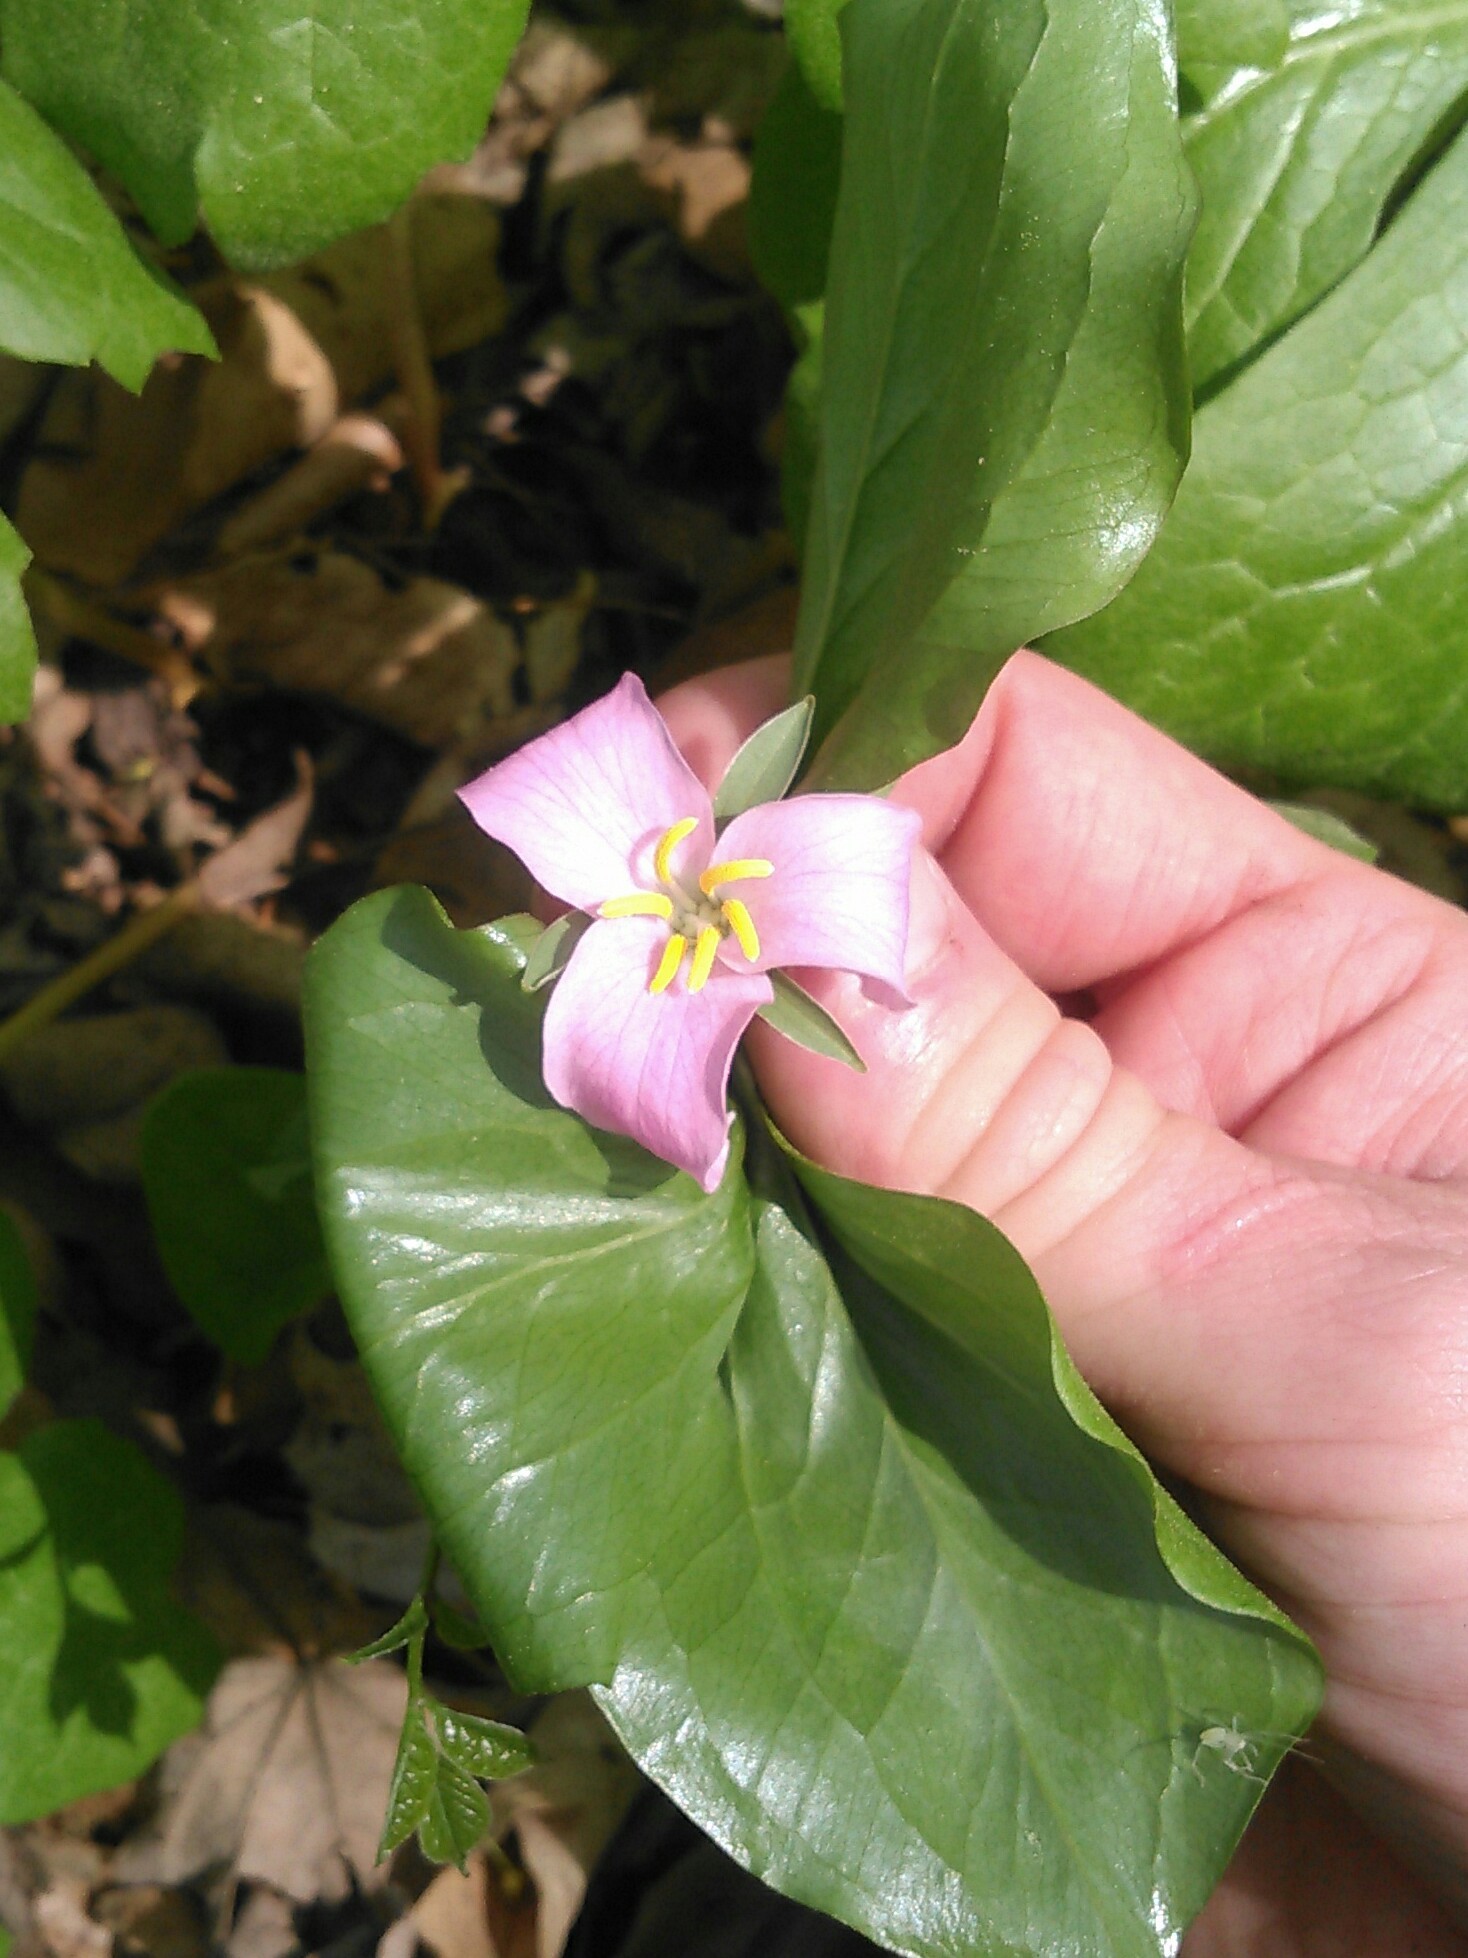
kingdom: Plantae
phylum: Tracheophyta
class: Liliopsida
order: Liliales
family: Melanthiaceae
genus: Trillium
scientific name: Trillium catesbaei
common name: Bashful trillium
